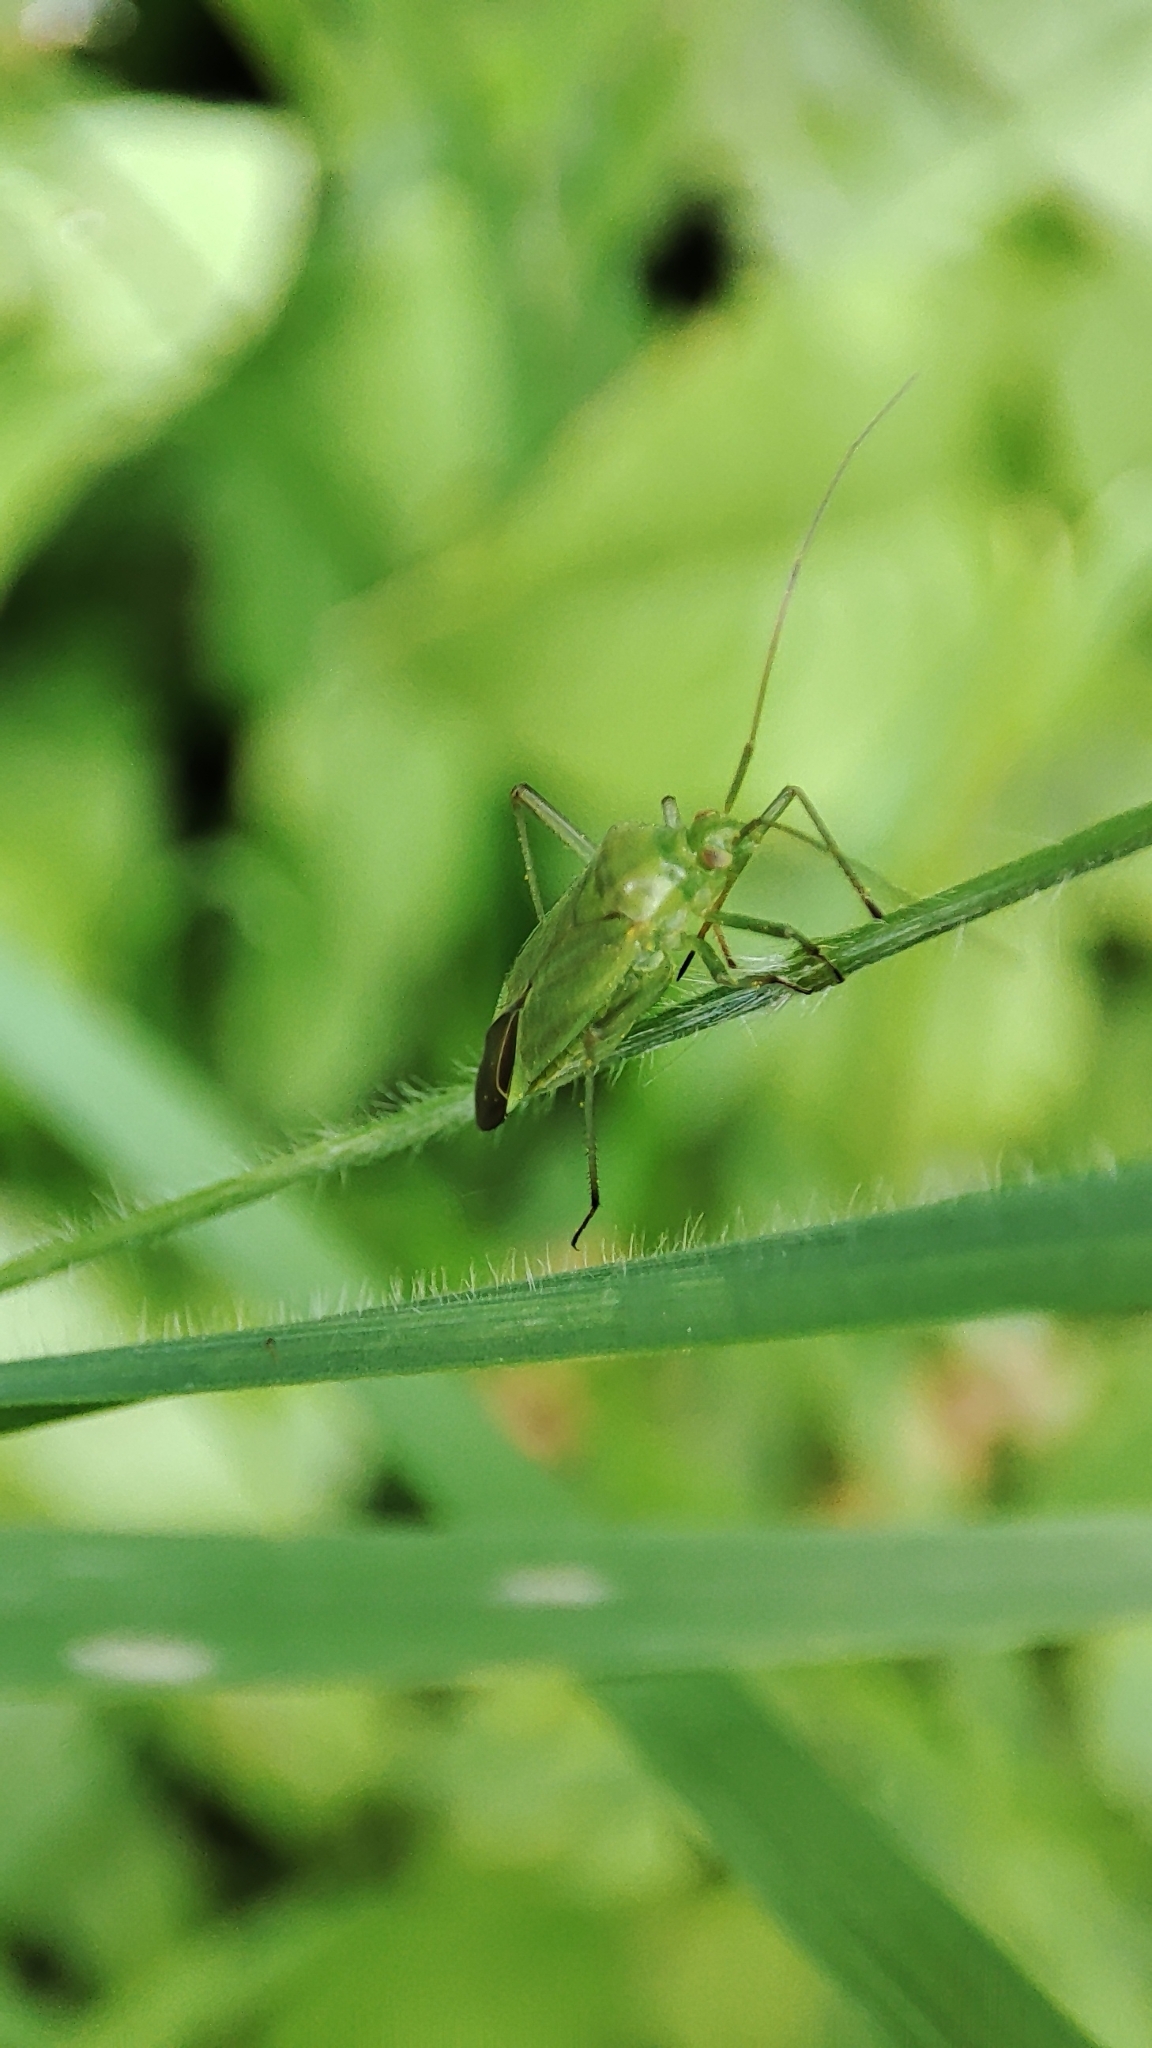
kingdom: Animalia
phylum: Arthropoda
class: Insecta
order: Hemiptera
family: Miridae
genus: Calocoris
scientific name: Calocoris affinis
